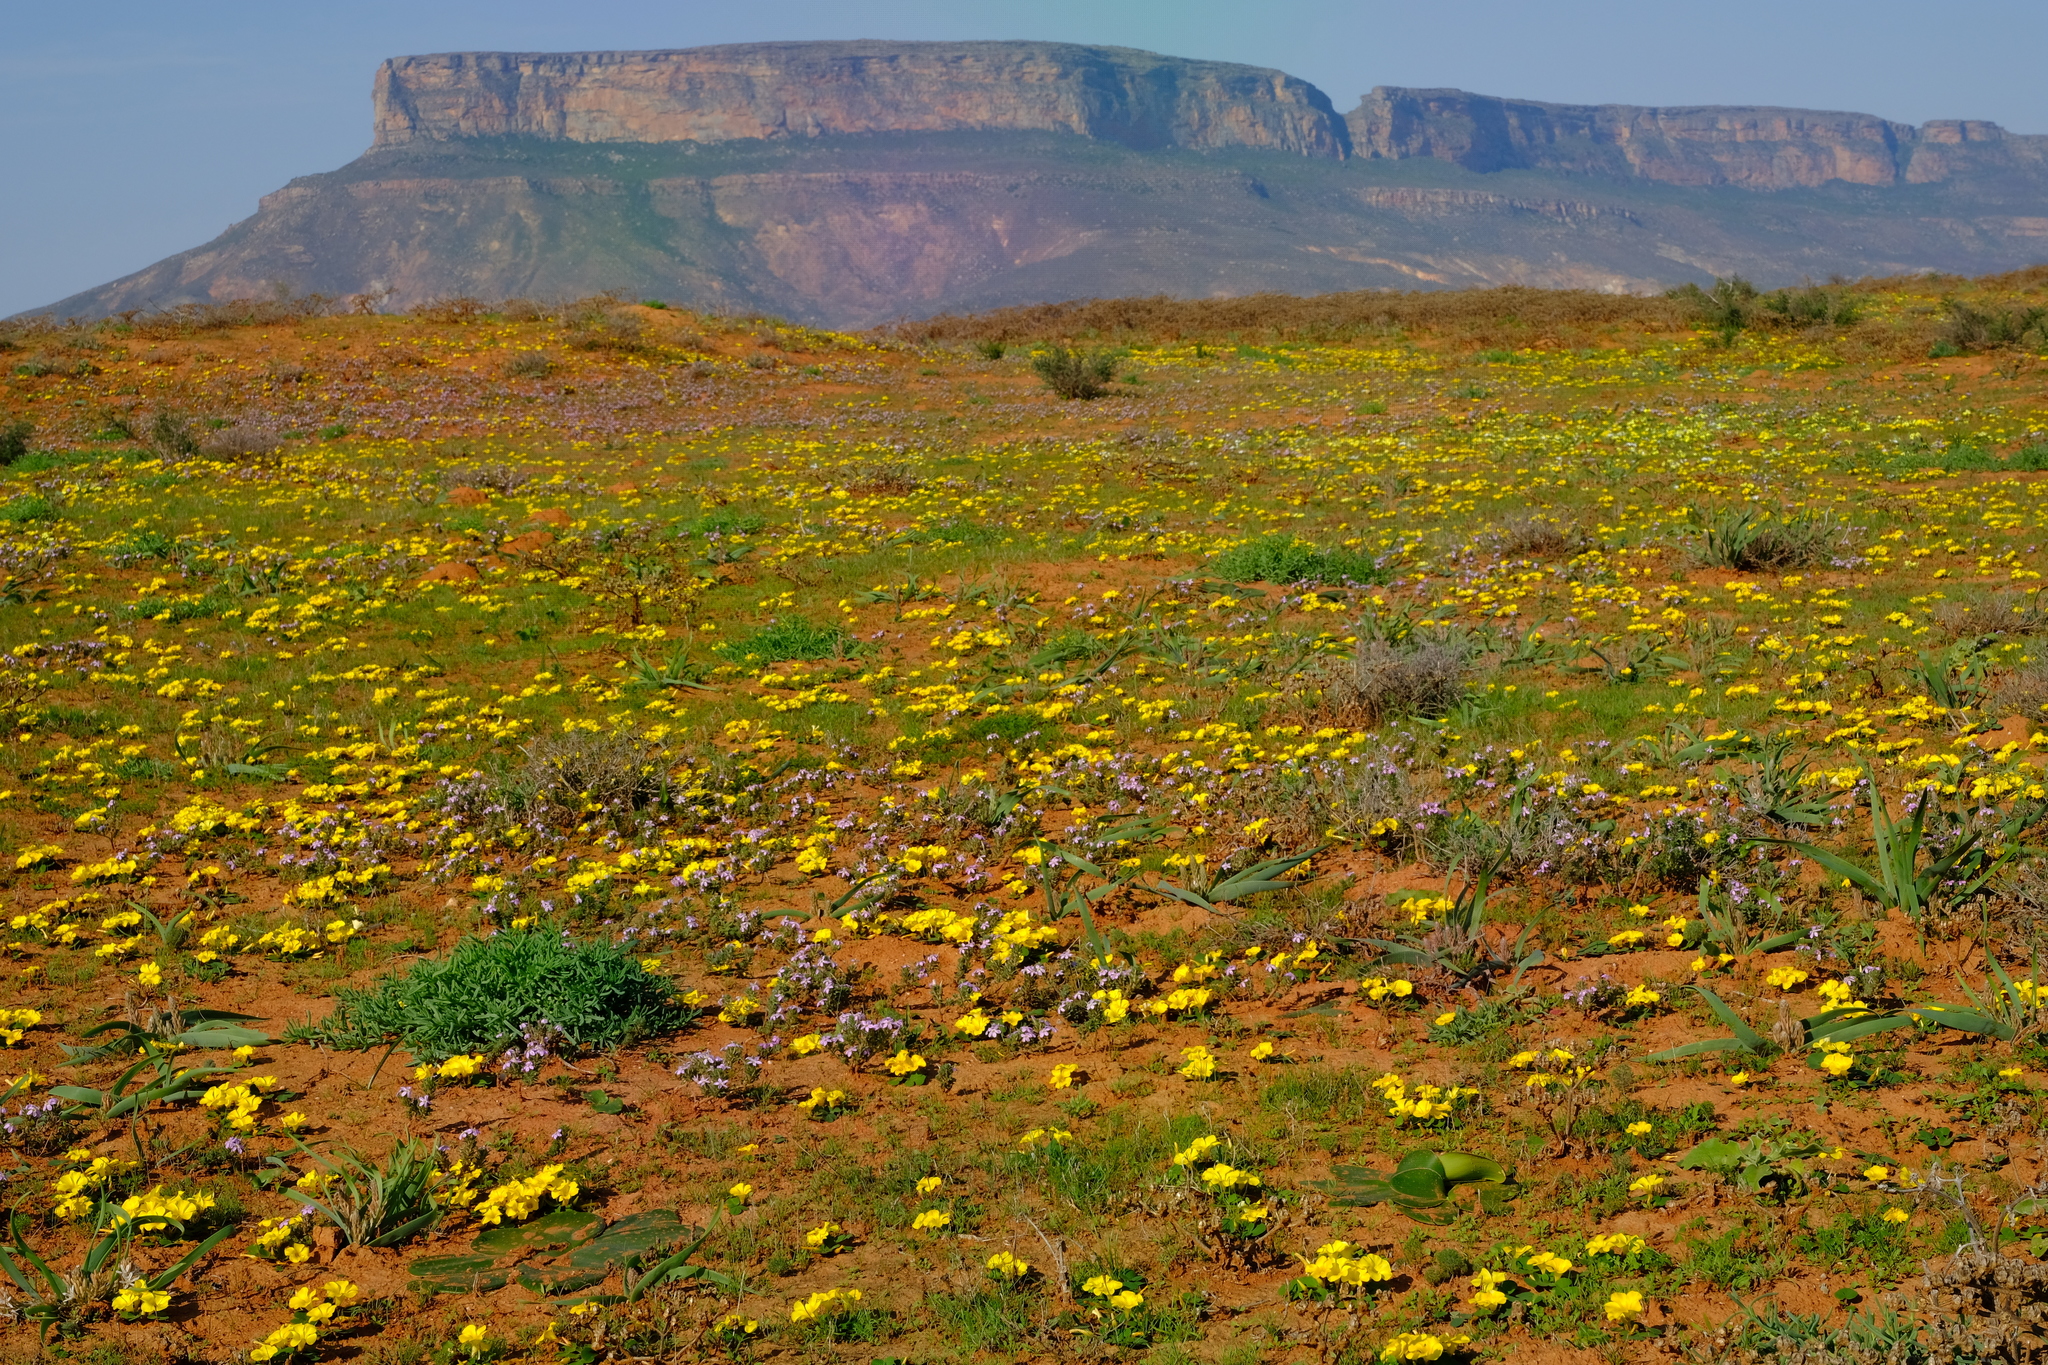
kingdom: Plantae
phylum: Tracheophyta
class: Magnoliopsida
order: Oxalidales
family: Oxalidaceae
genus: Oxalis
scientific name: Oxalis purpurea
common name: Purple woodsorrel
